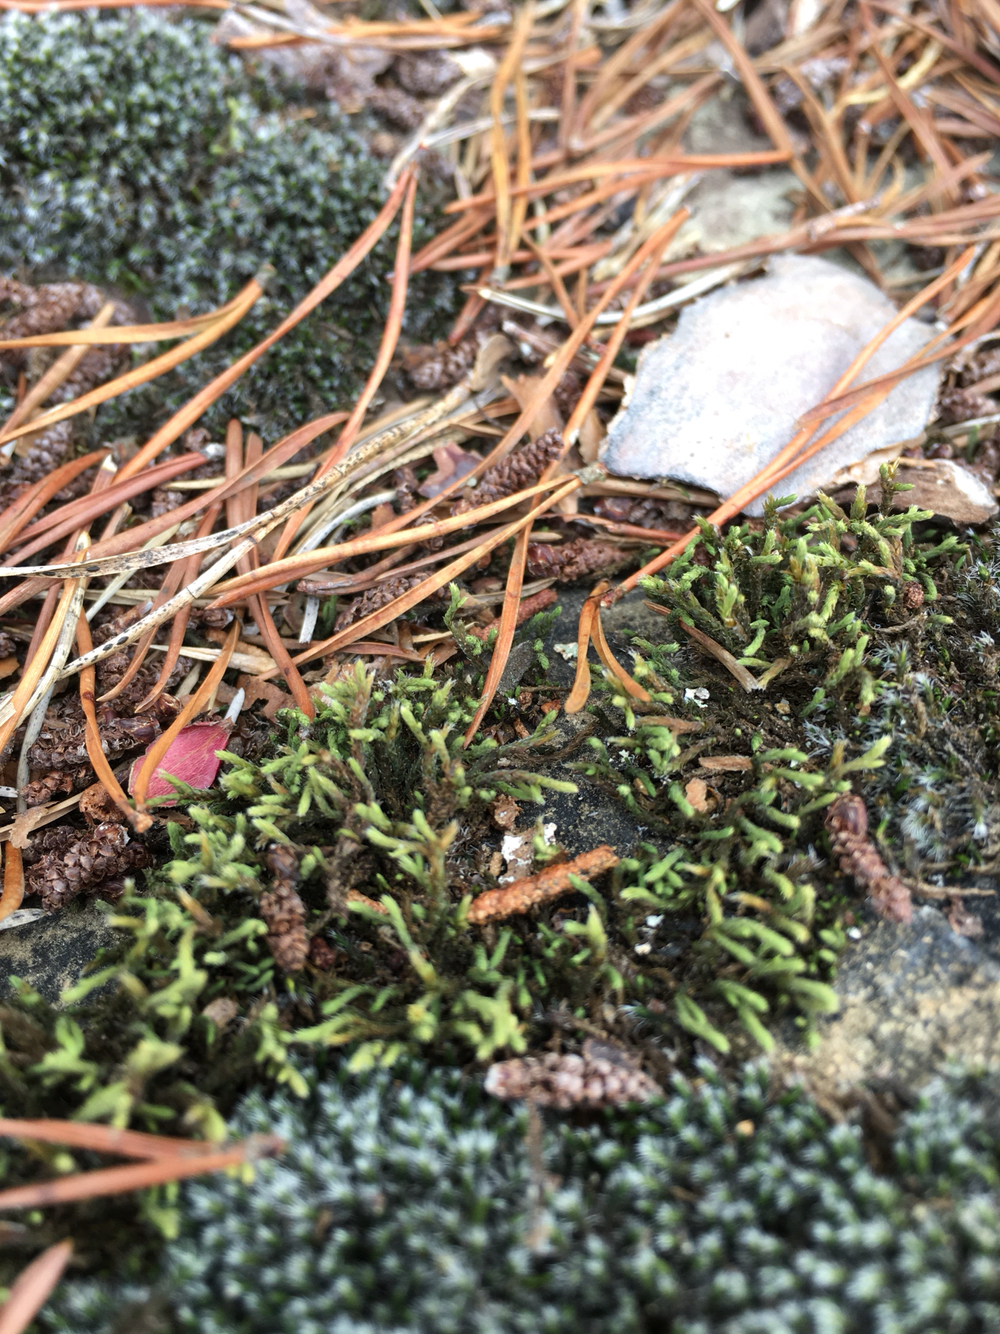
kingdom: Plantae
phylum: Bryophyta
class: Bryopsida
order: Hedwigiales
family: Hedwigiaceae
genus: Hedwigia
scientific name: Hedwigia ciliata
